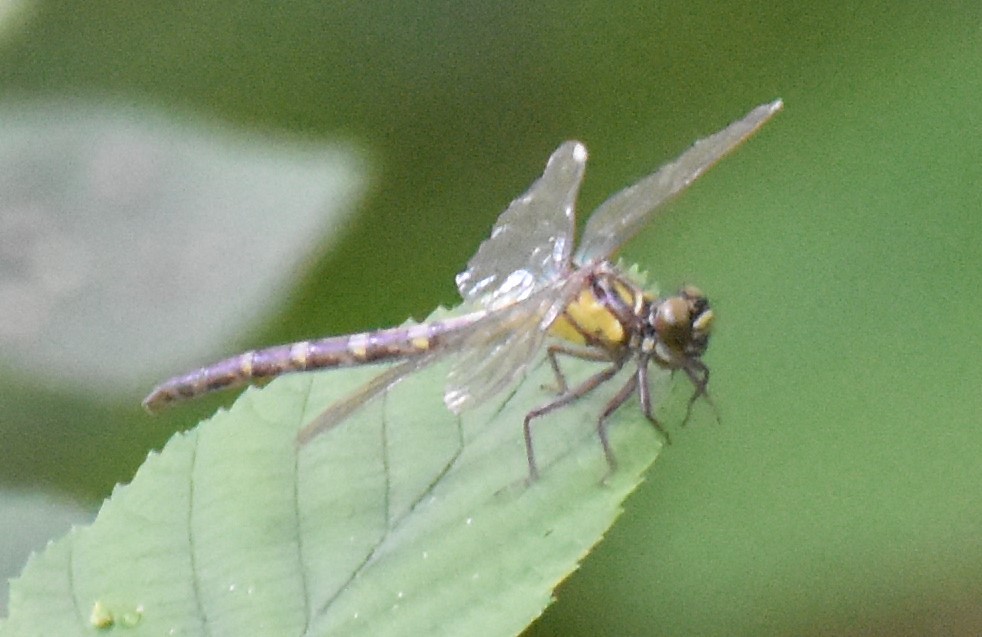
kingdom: Animalia
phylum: Arthropoda
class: Insecta
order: Odonata
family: Gomphidae
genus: Lanthus
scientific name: Lanthus vernalis
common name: Southern pygmy clubtail
